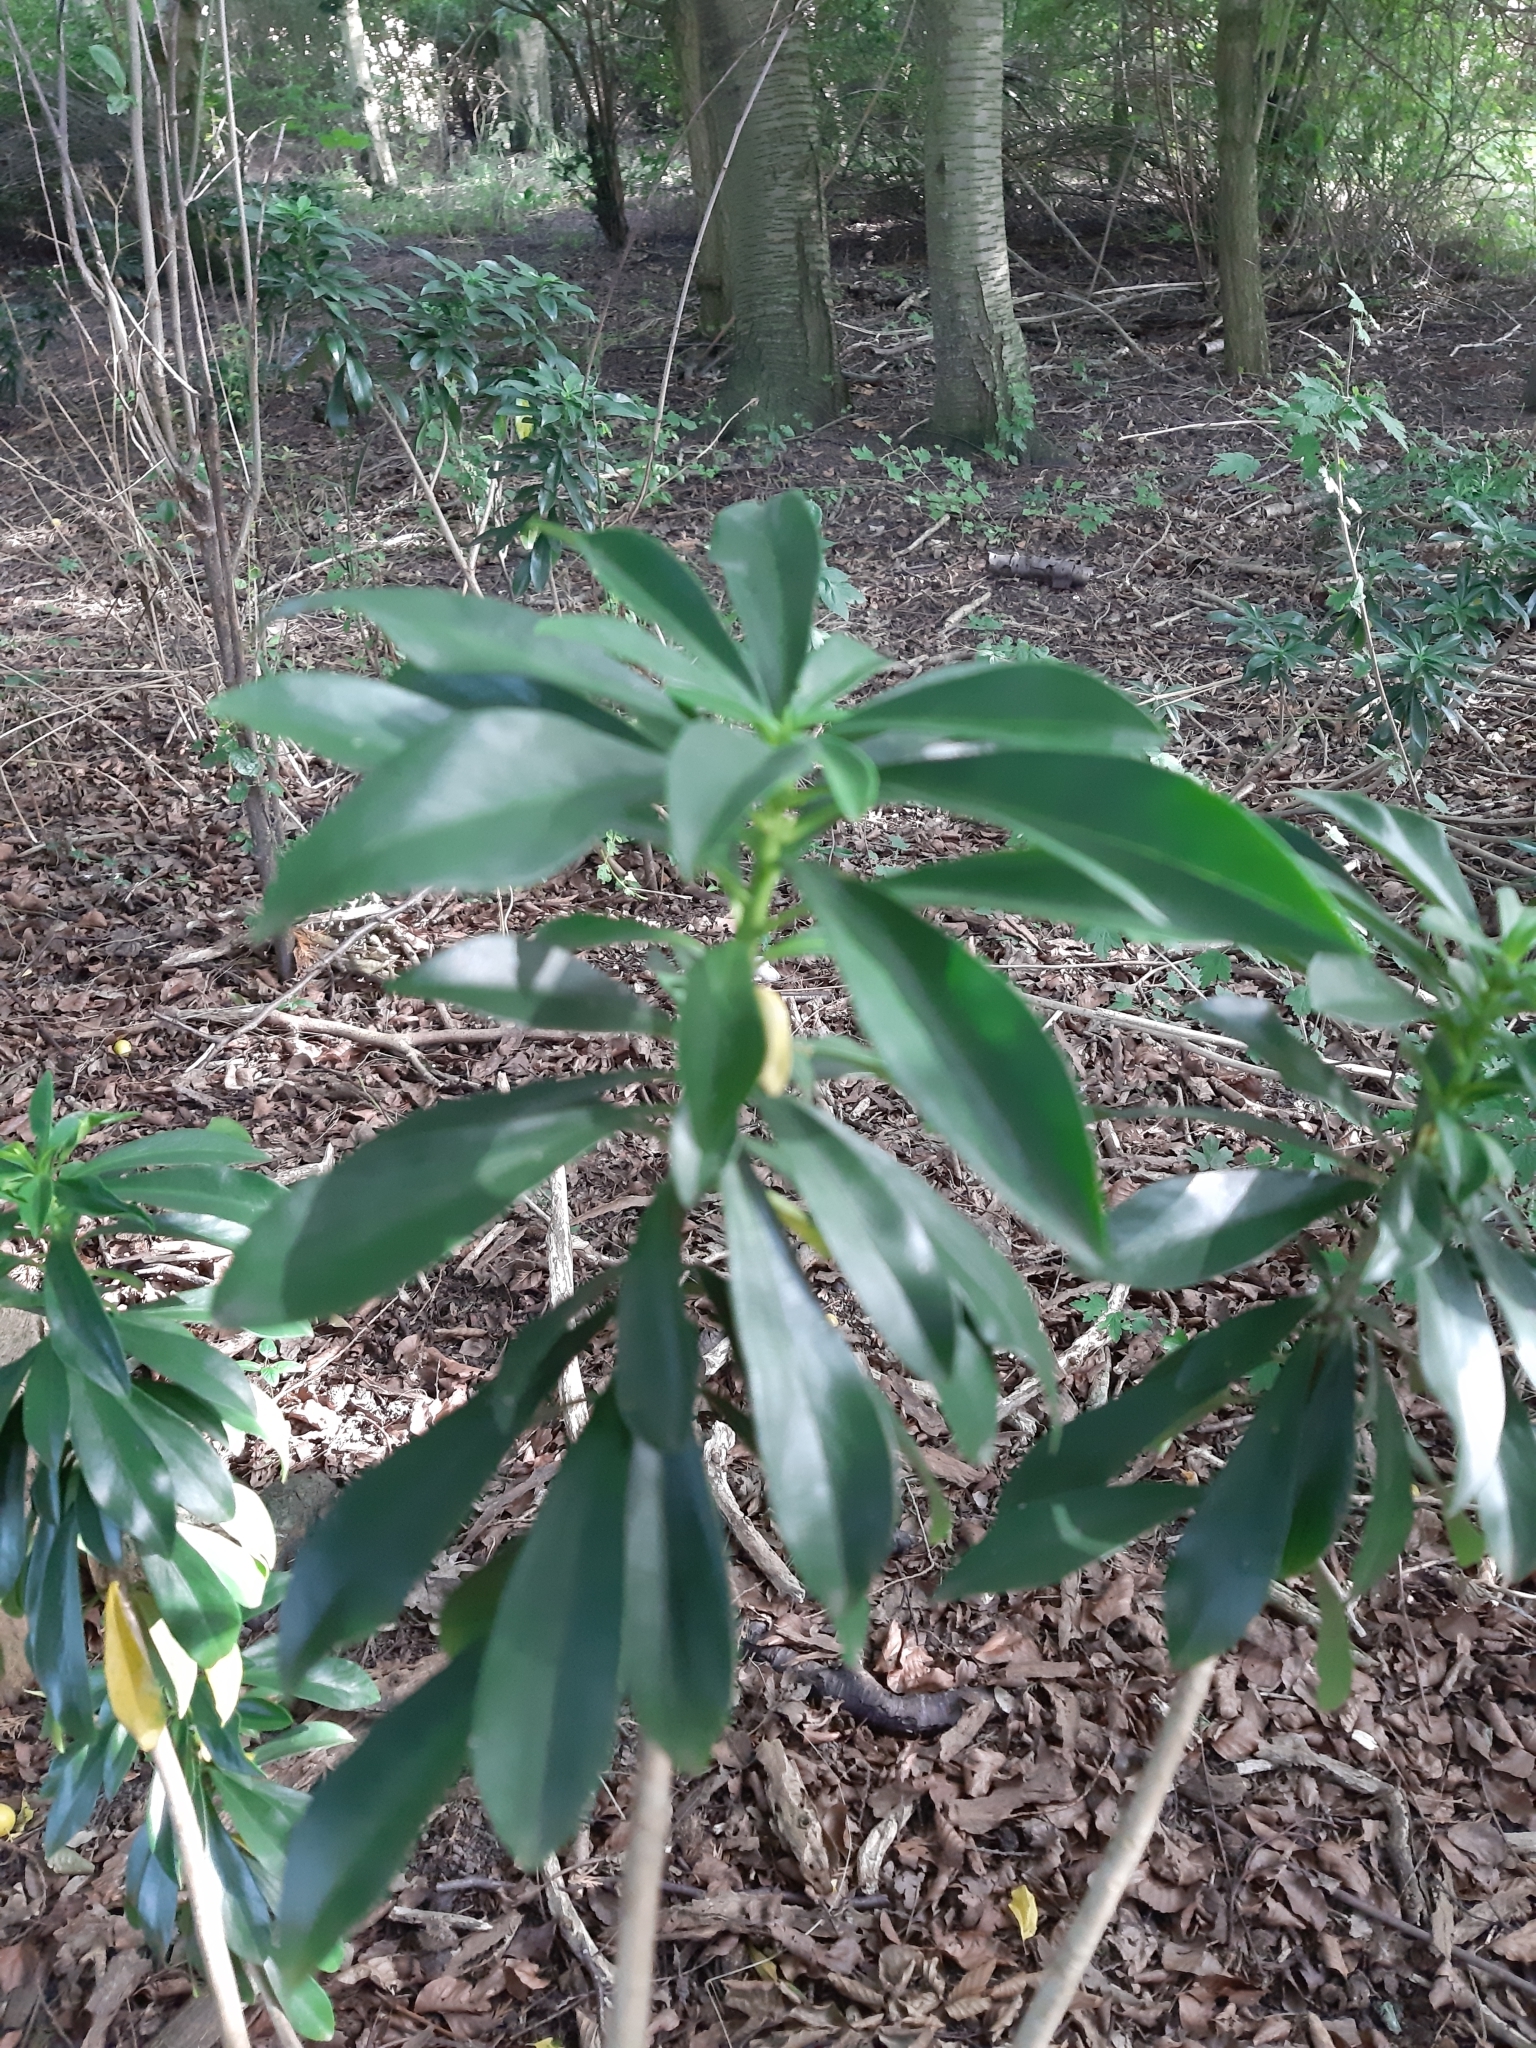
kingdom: Plantae
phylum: Tracheophyta
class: Magnoliopsida
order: Malvales
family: Thymelaeaceae
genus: Daphne
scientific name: Daphne laureola
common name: Spurge-laurel
